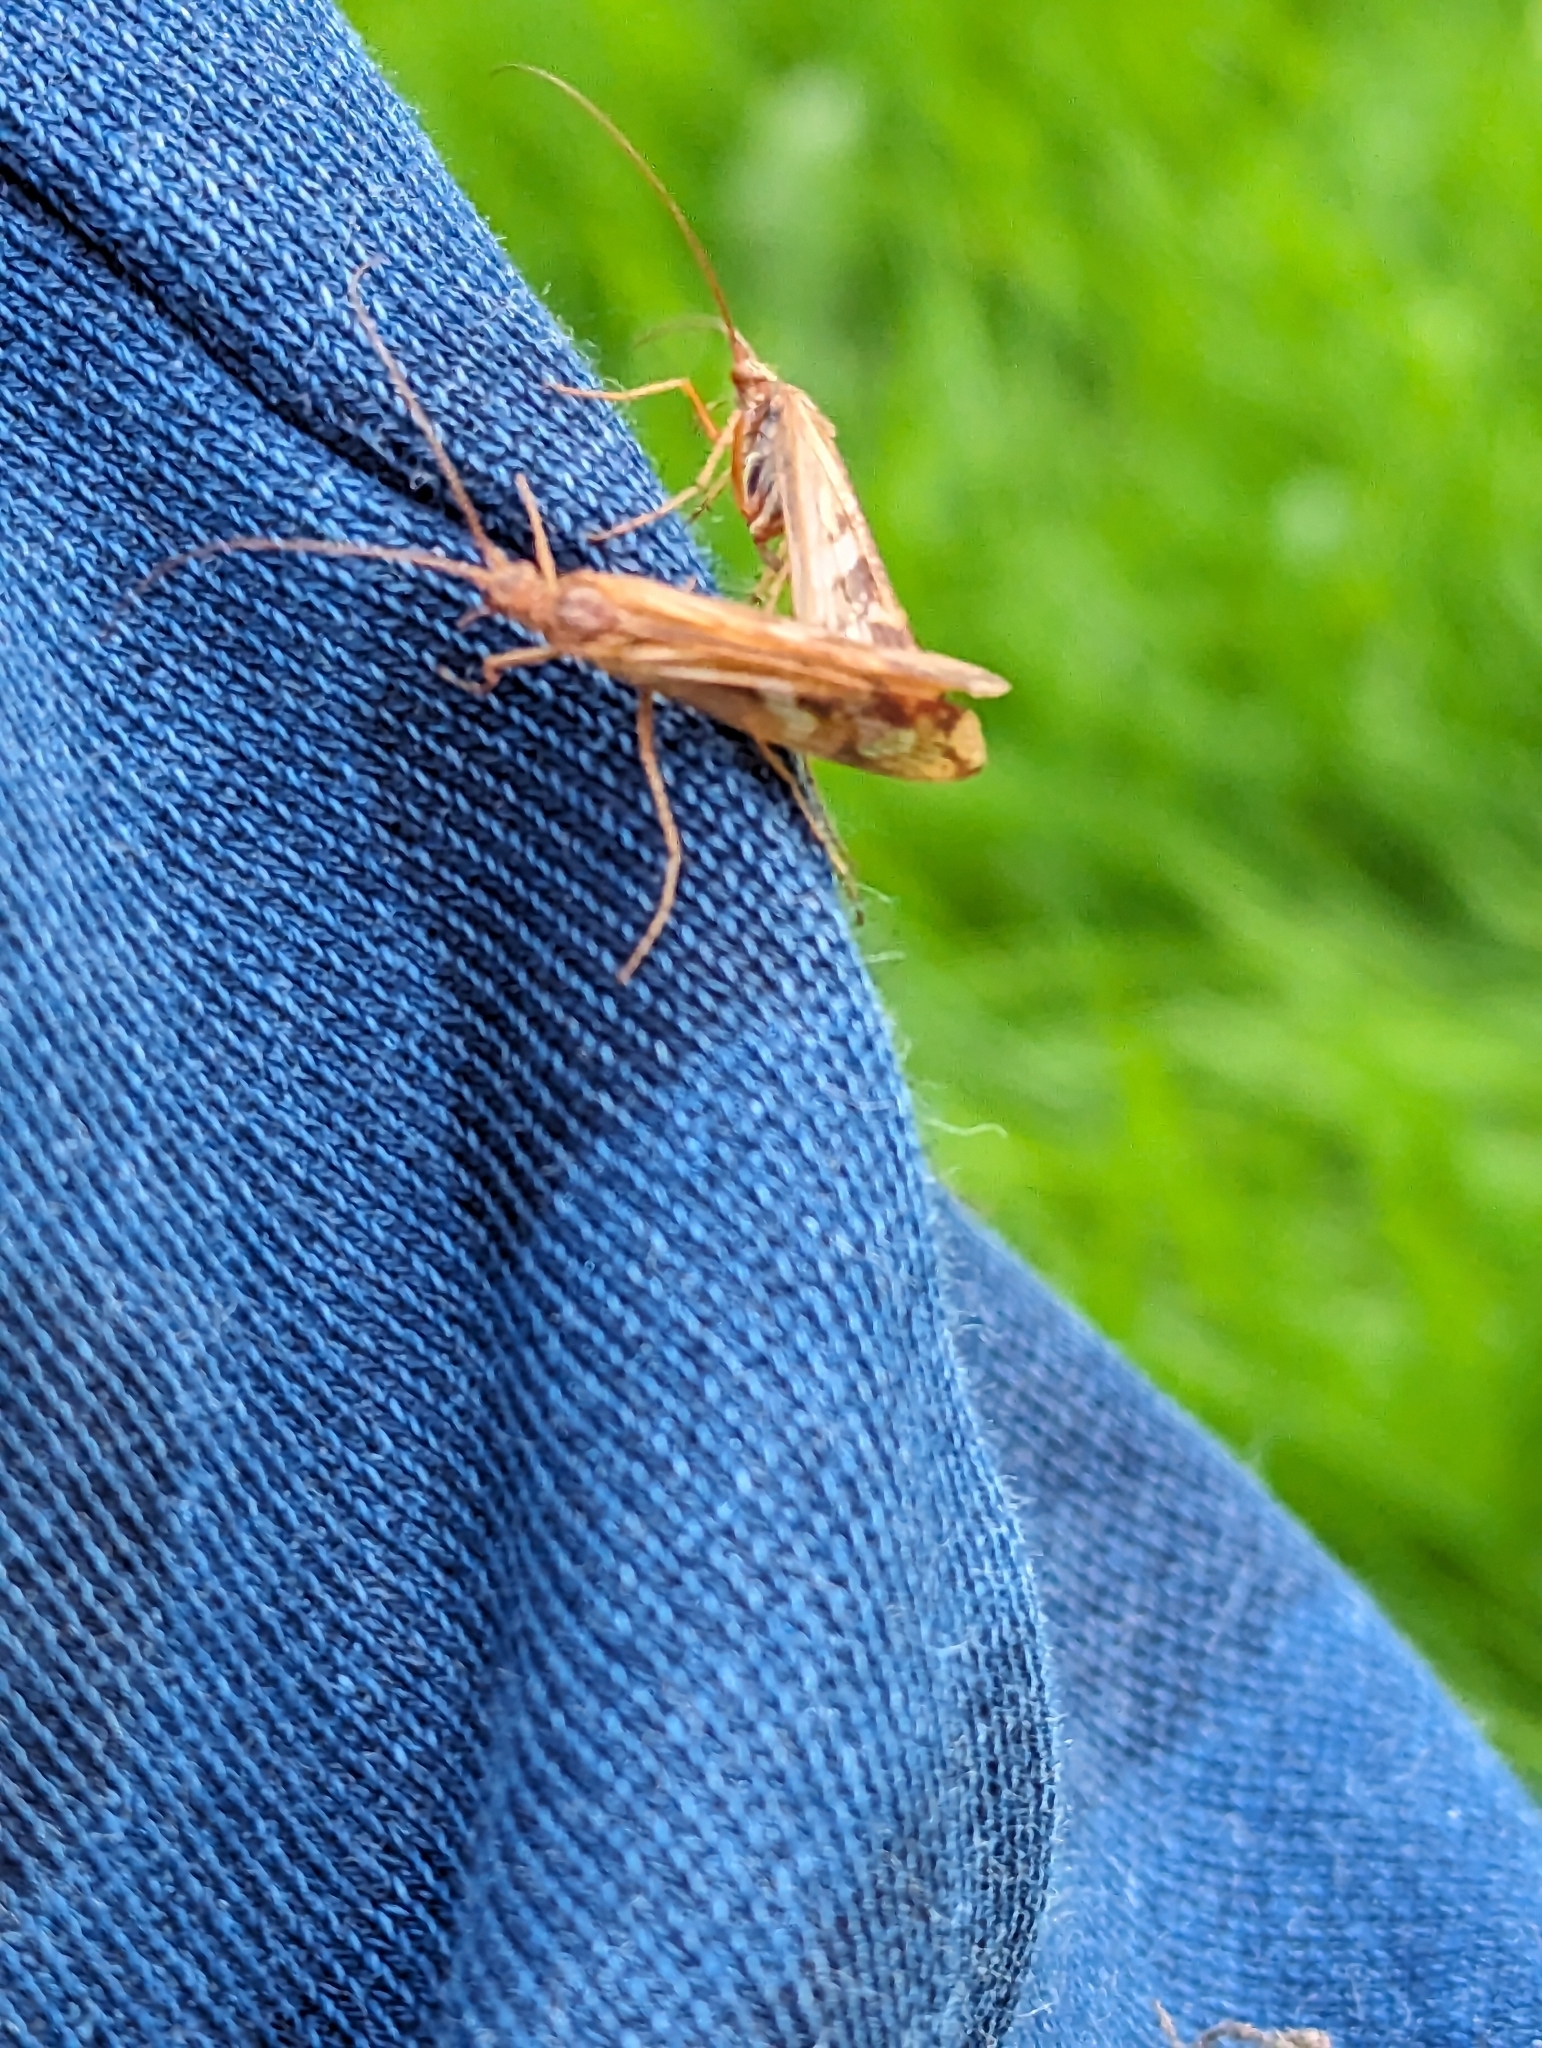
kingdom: Animalia
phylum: Arthropoda
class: Insecta
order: Trichoptera
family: Limnephilidae
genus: Limnephilus
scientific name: Limnephilus lunatus
